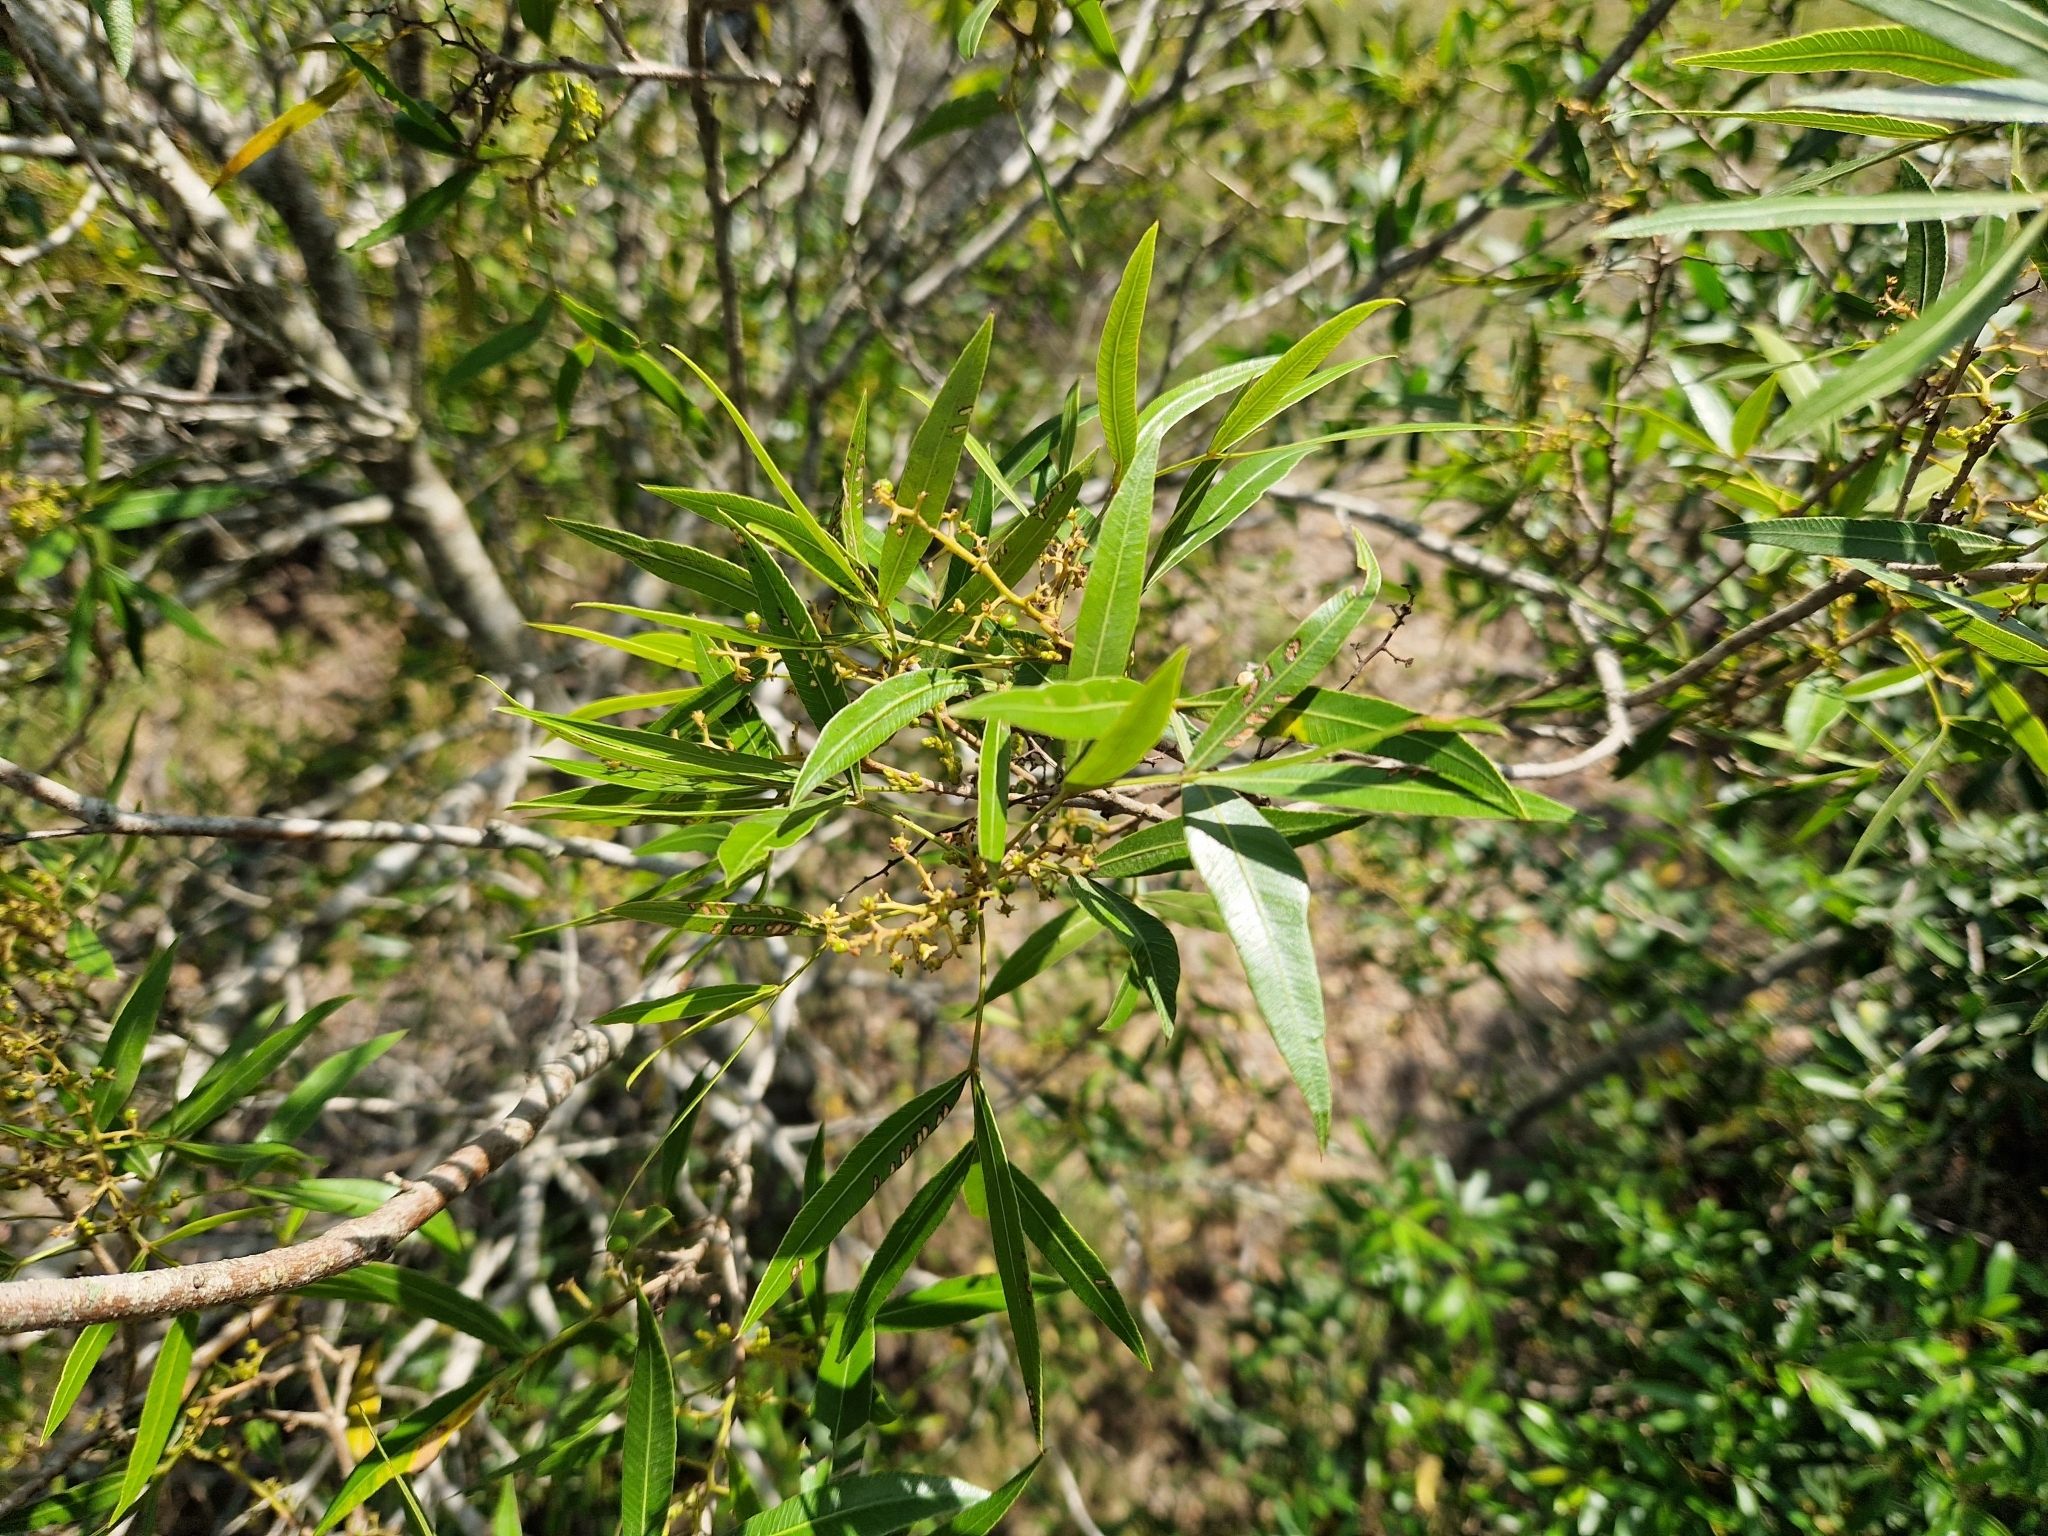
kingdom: Plantae
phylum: Tracheophyta
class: Magnoliopsida
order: Sapindales
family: Anacardiaceae
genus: Lithraea
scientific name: Lithraea molleoides
